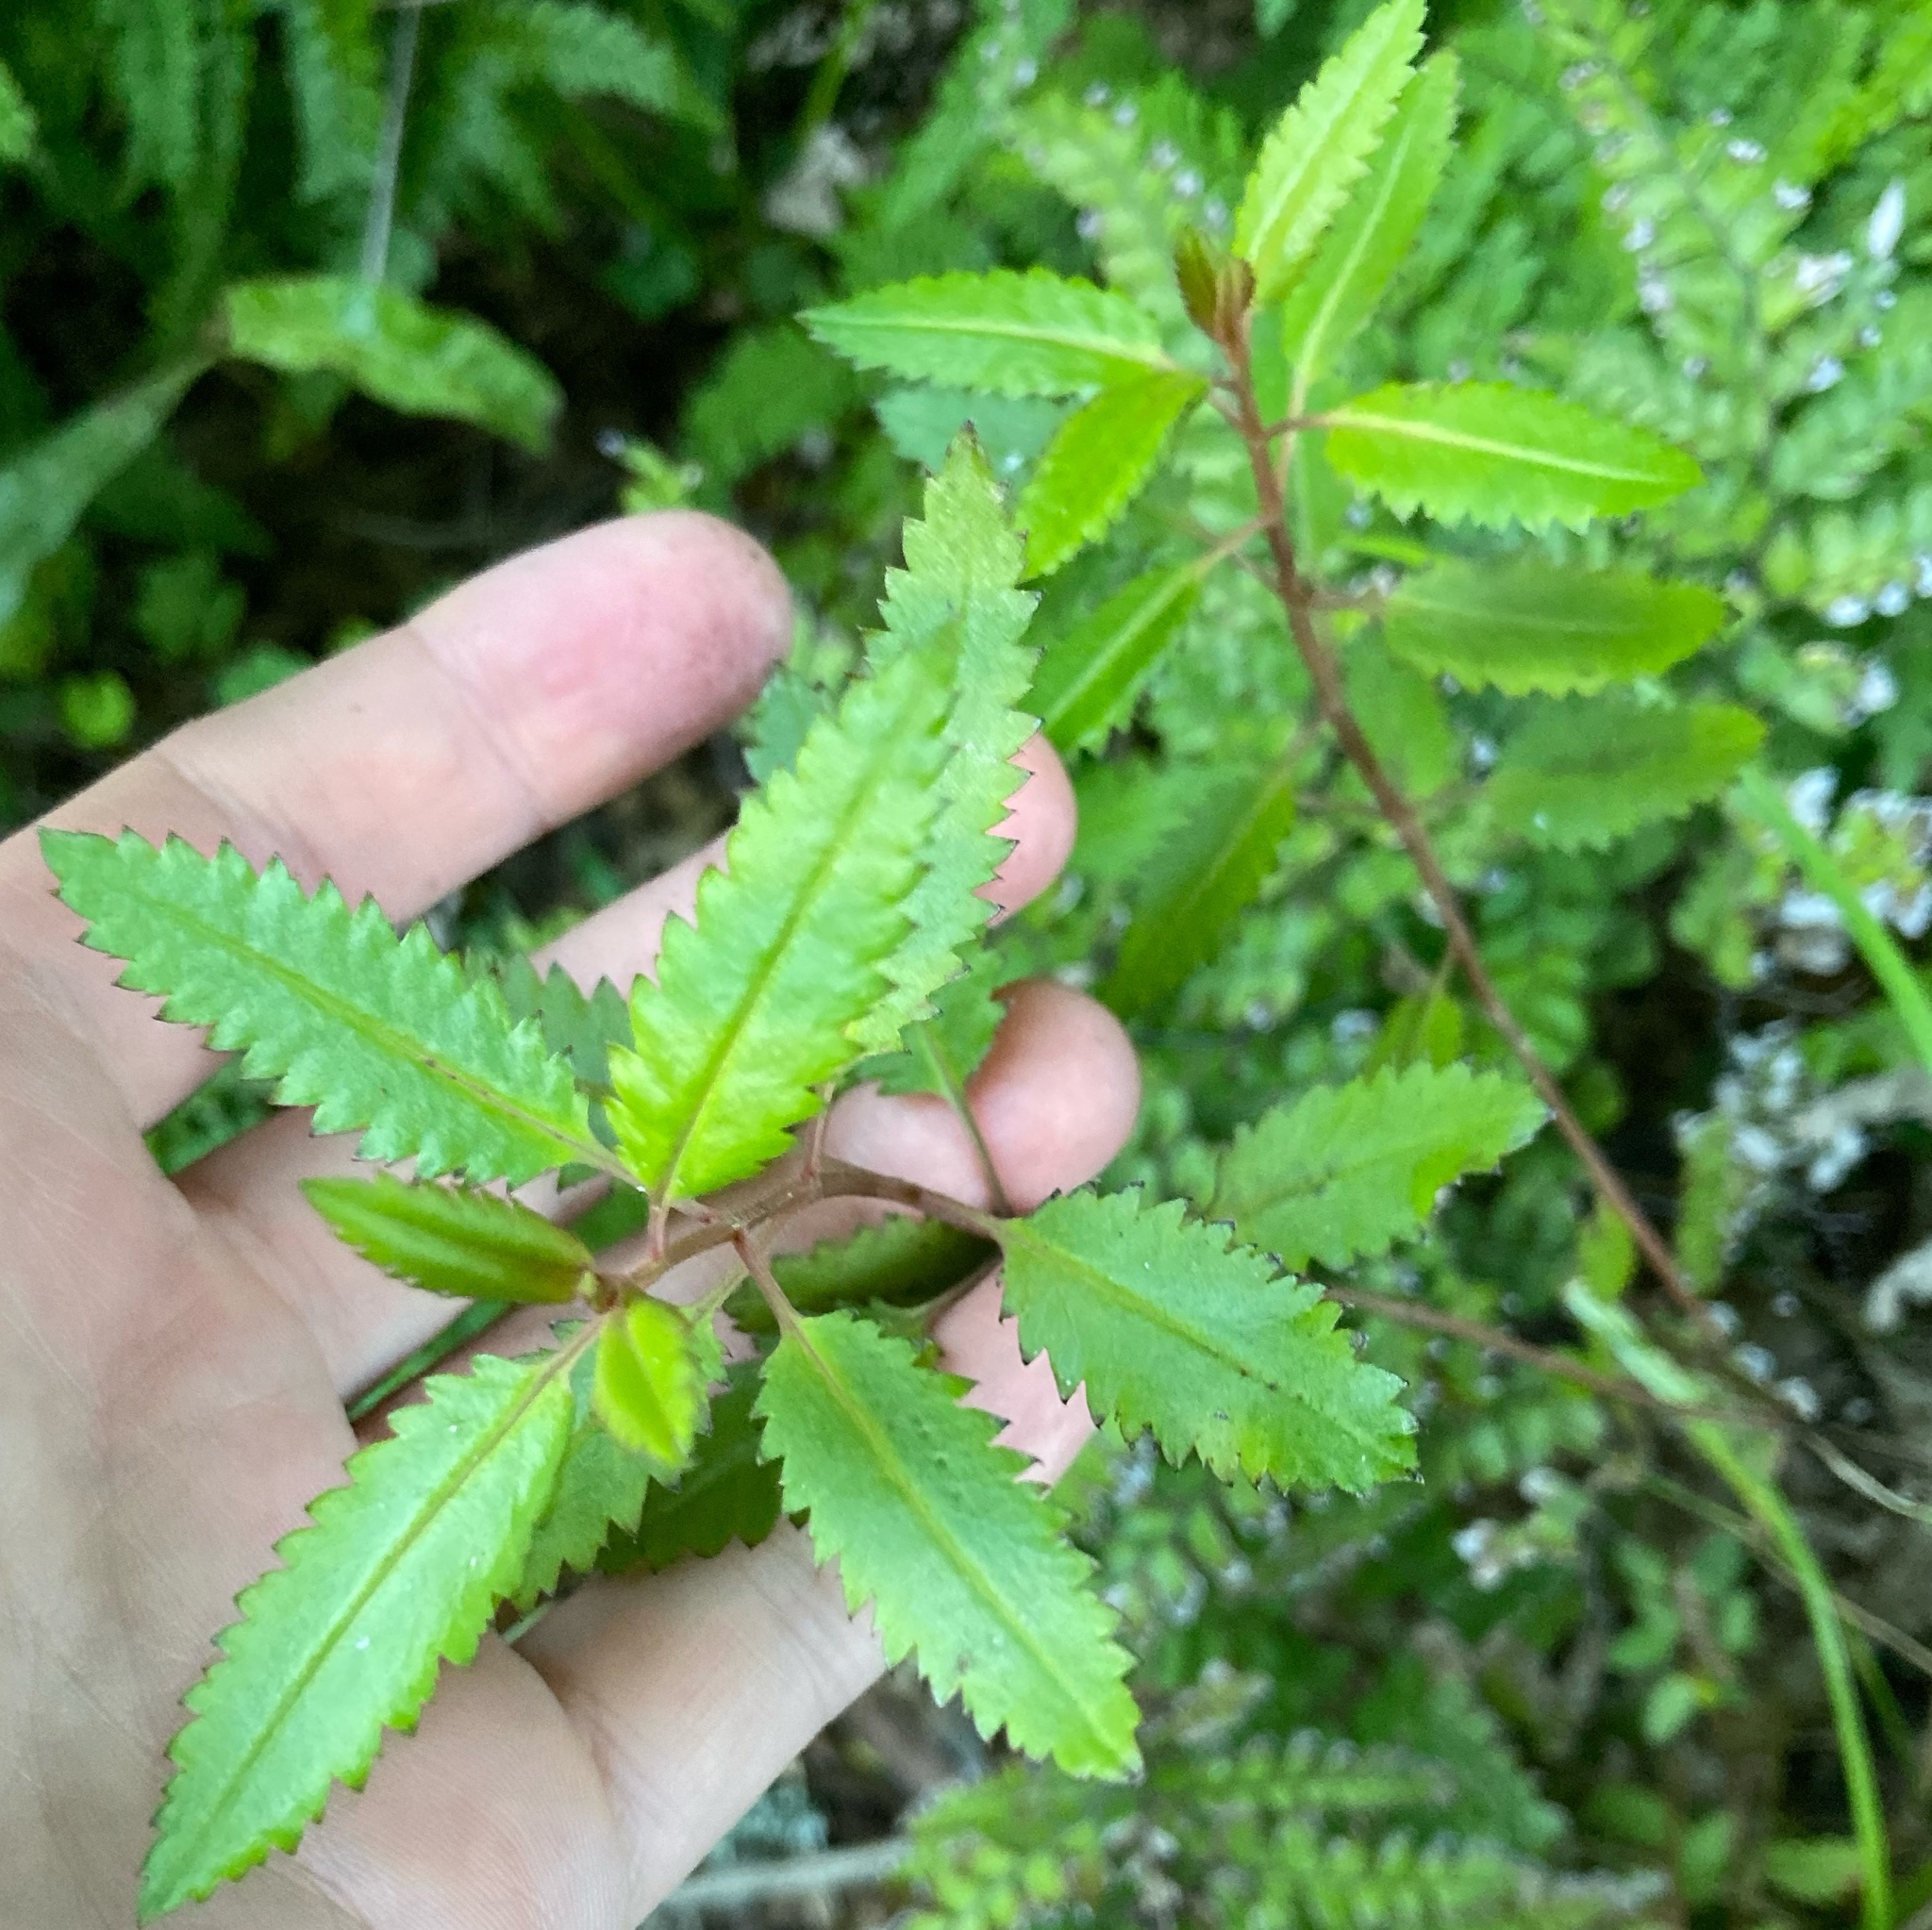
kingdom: Plantae
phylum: Tracheophyta
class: Magnoliopsida
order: Saxifragales
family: Haloragaceae
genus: Haloragis
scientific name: Haloragis erecta
